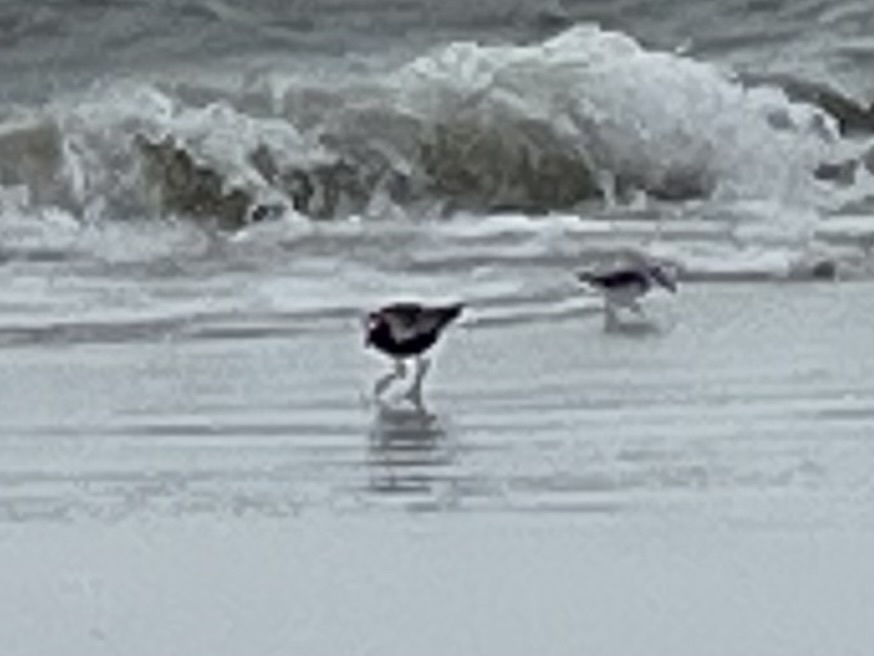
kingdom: Animalia
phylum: Chordata
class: Aves
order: Charadriiformes
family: Charadriidae
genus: Pluvialis
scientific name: Pluvialis squatarola
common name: Grey plover
